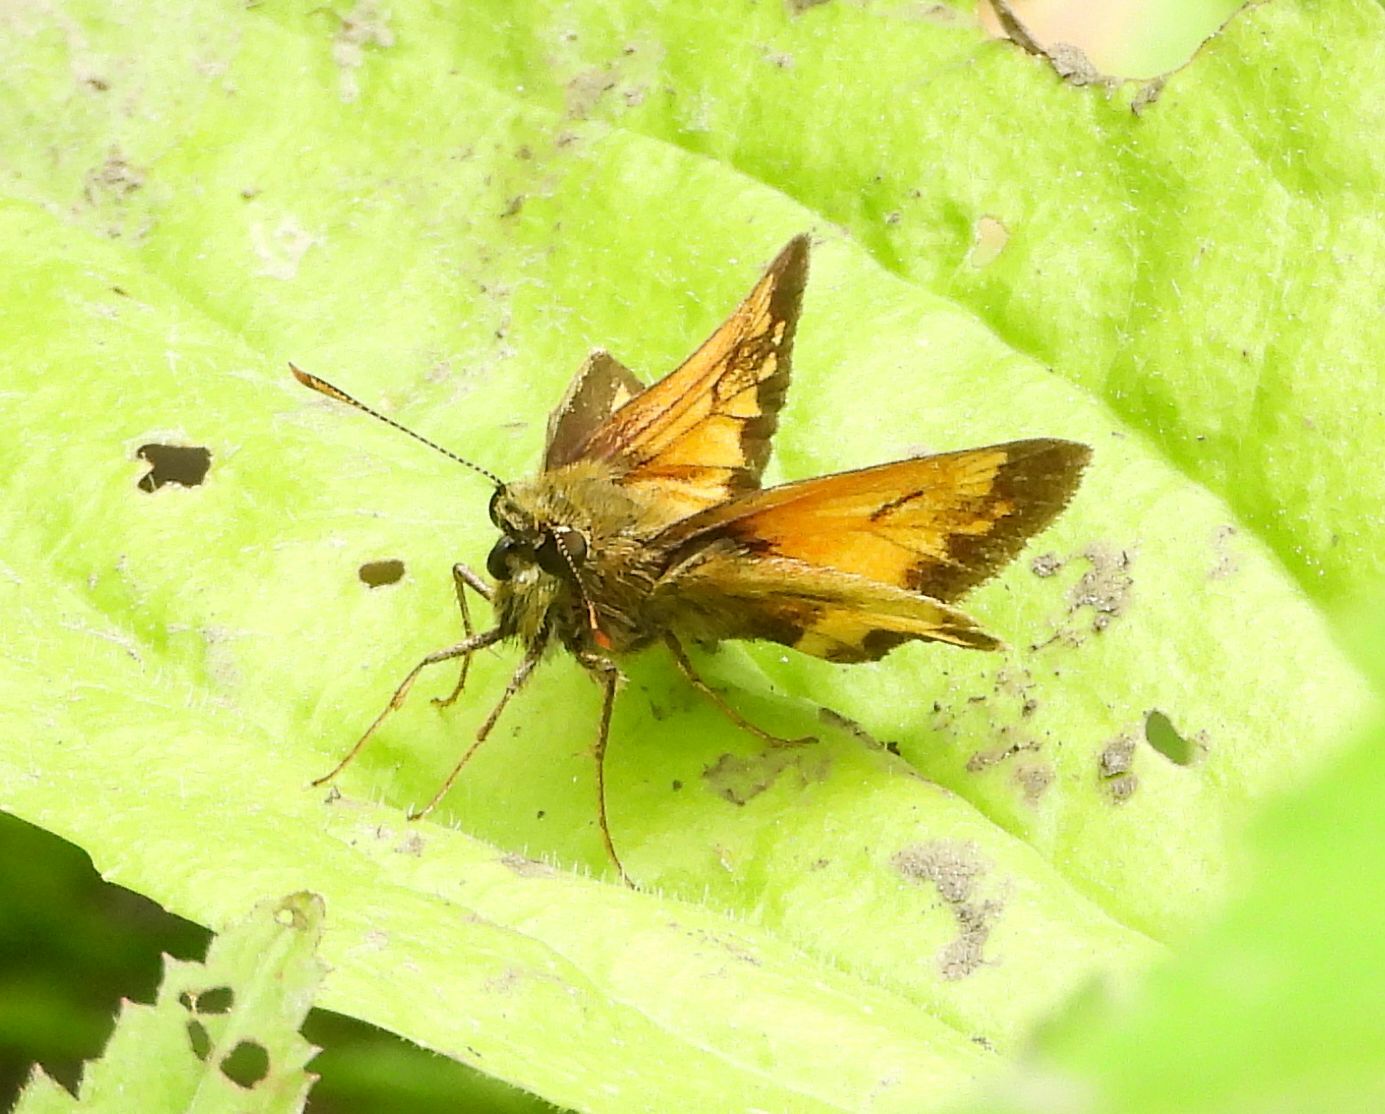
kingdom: Animalia
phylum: Arthropoda
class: Insecta
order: Lepidoptera
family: Hesperiidae
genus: Lon
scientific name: Lon hobomok
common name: Hobomok skipper
